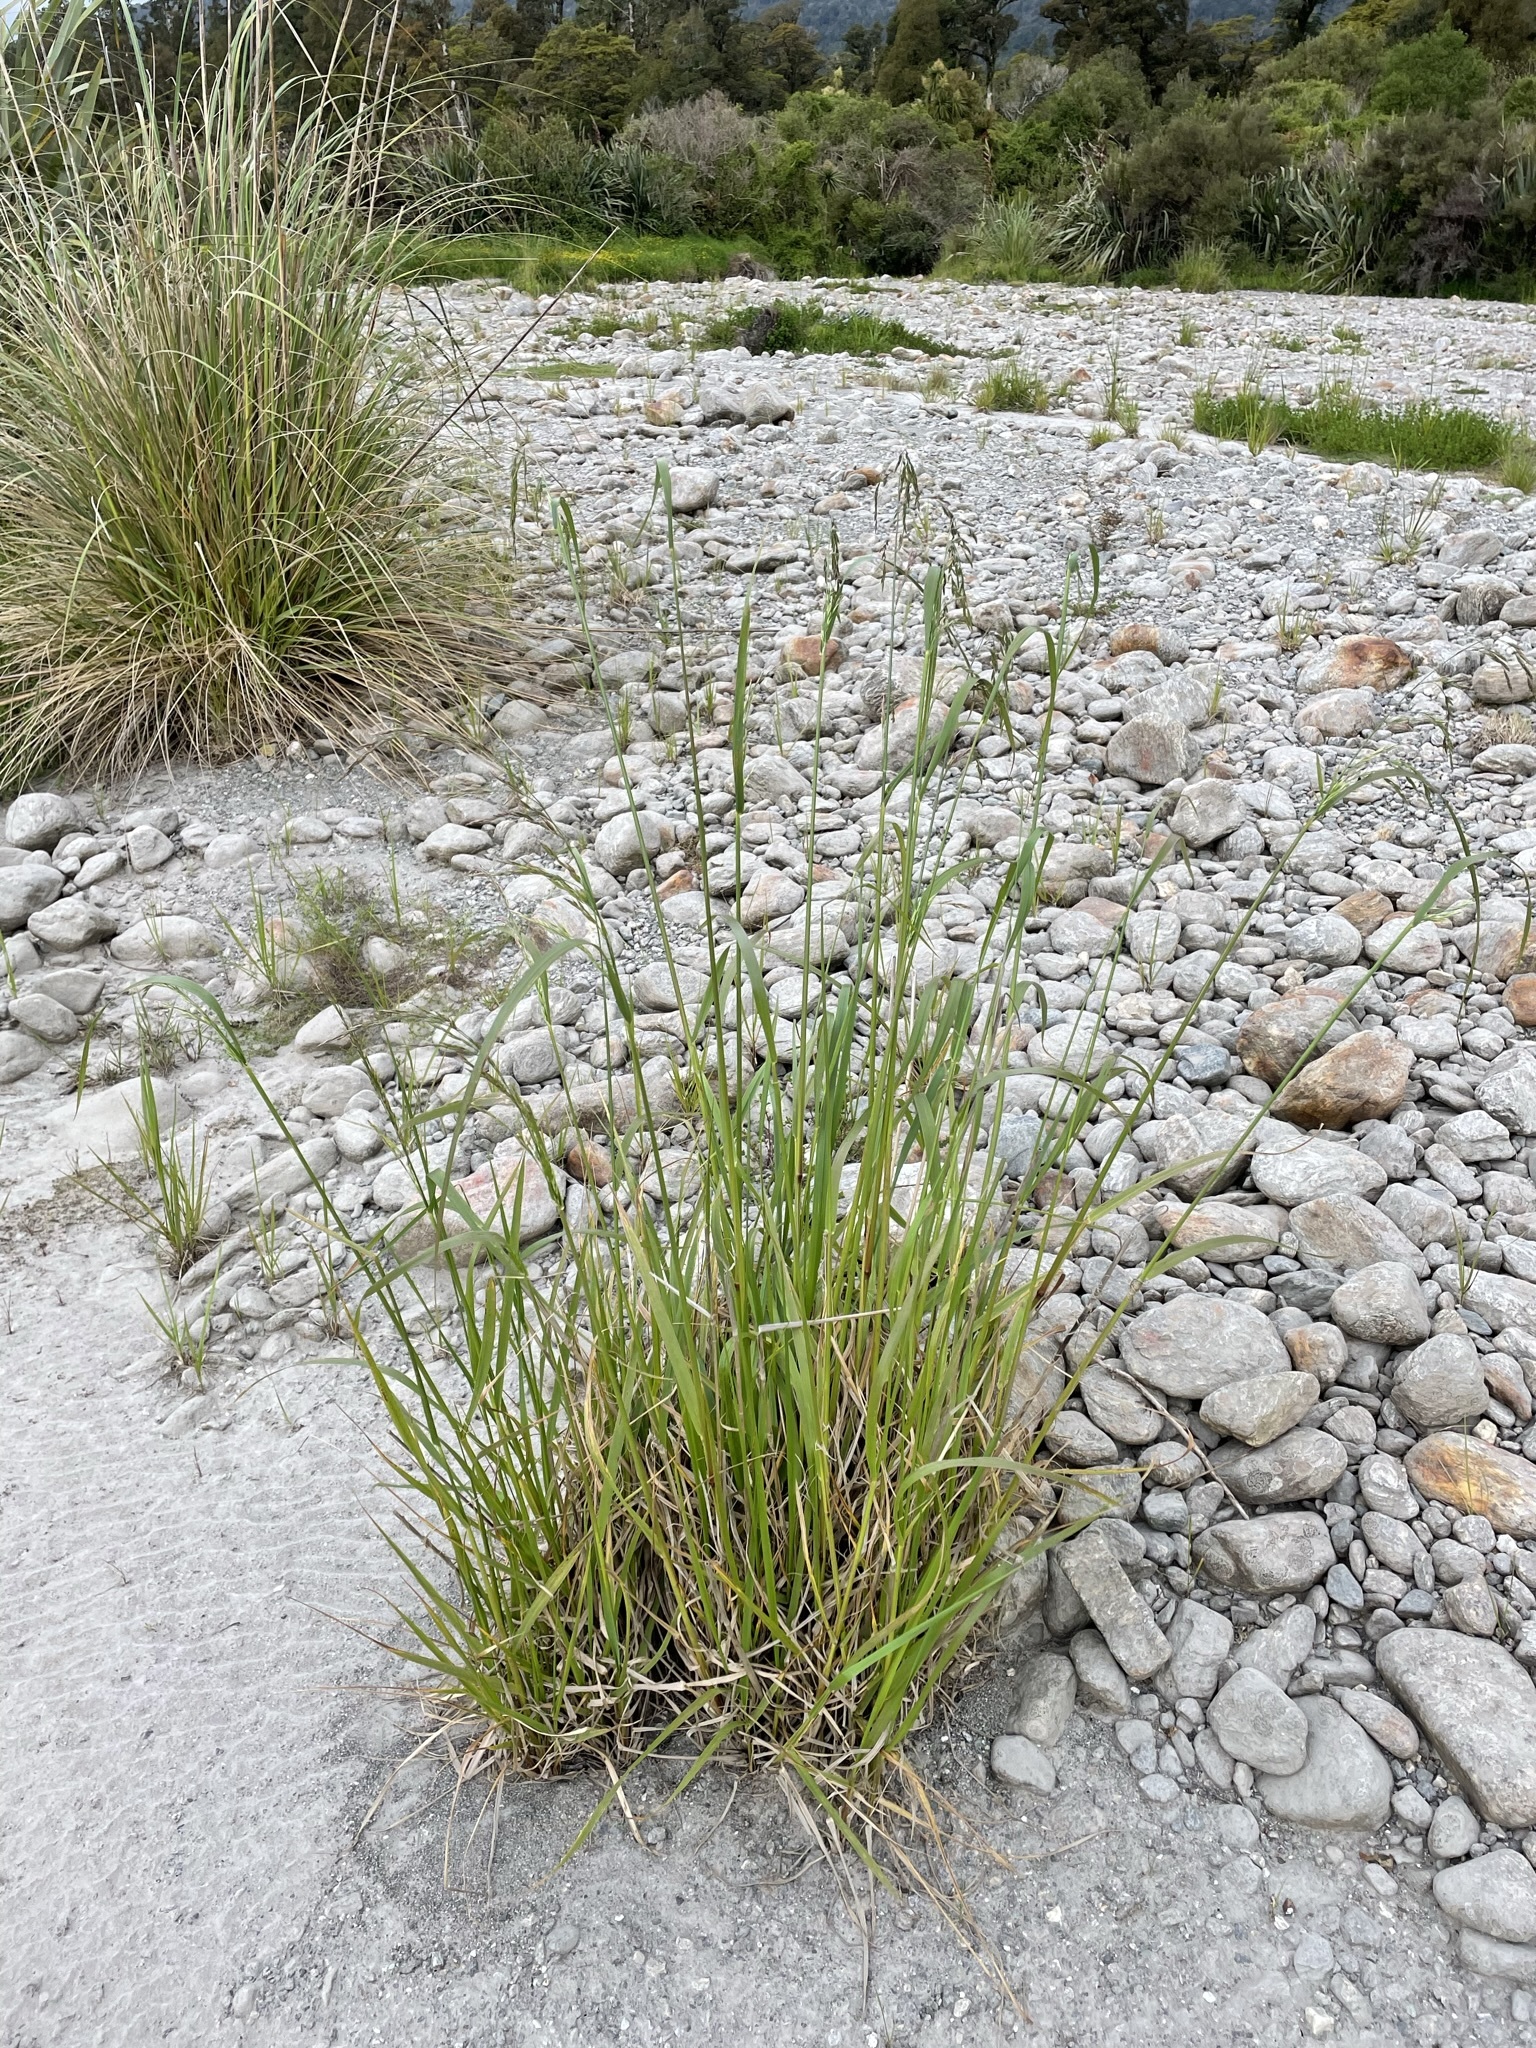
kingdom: Plantae
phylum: Tracheophyta
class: Liliopsida
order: Poales
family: Poaceae
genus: Lolium
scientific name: Lolium arundinaceum
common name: Reed fescue
